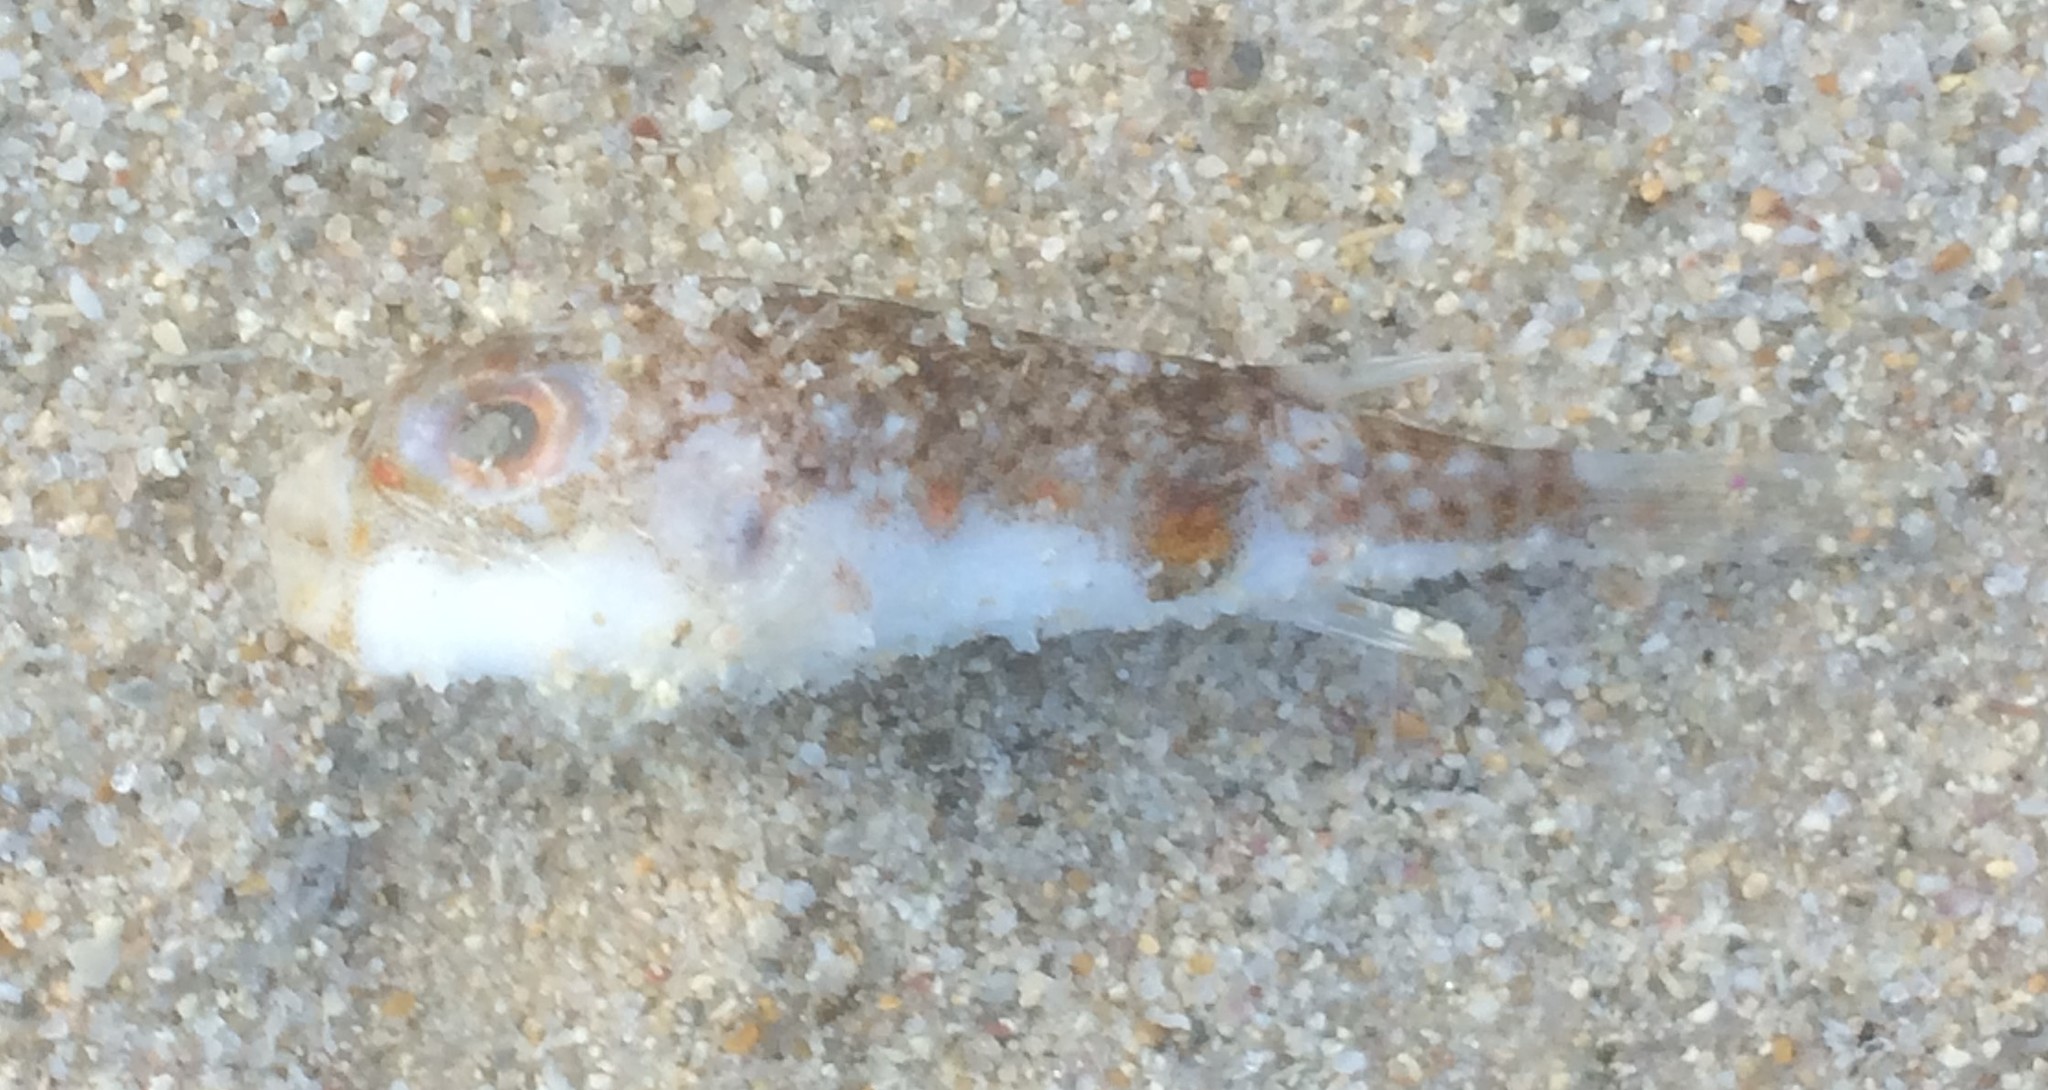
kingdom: Animalia
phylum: Chordata
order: Tetraodontiformes
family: Tetraodontidae
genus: Polyspina
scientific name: Polyspina piosae
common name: Orange-barred pufferfish
